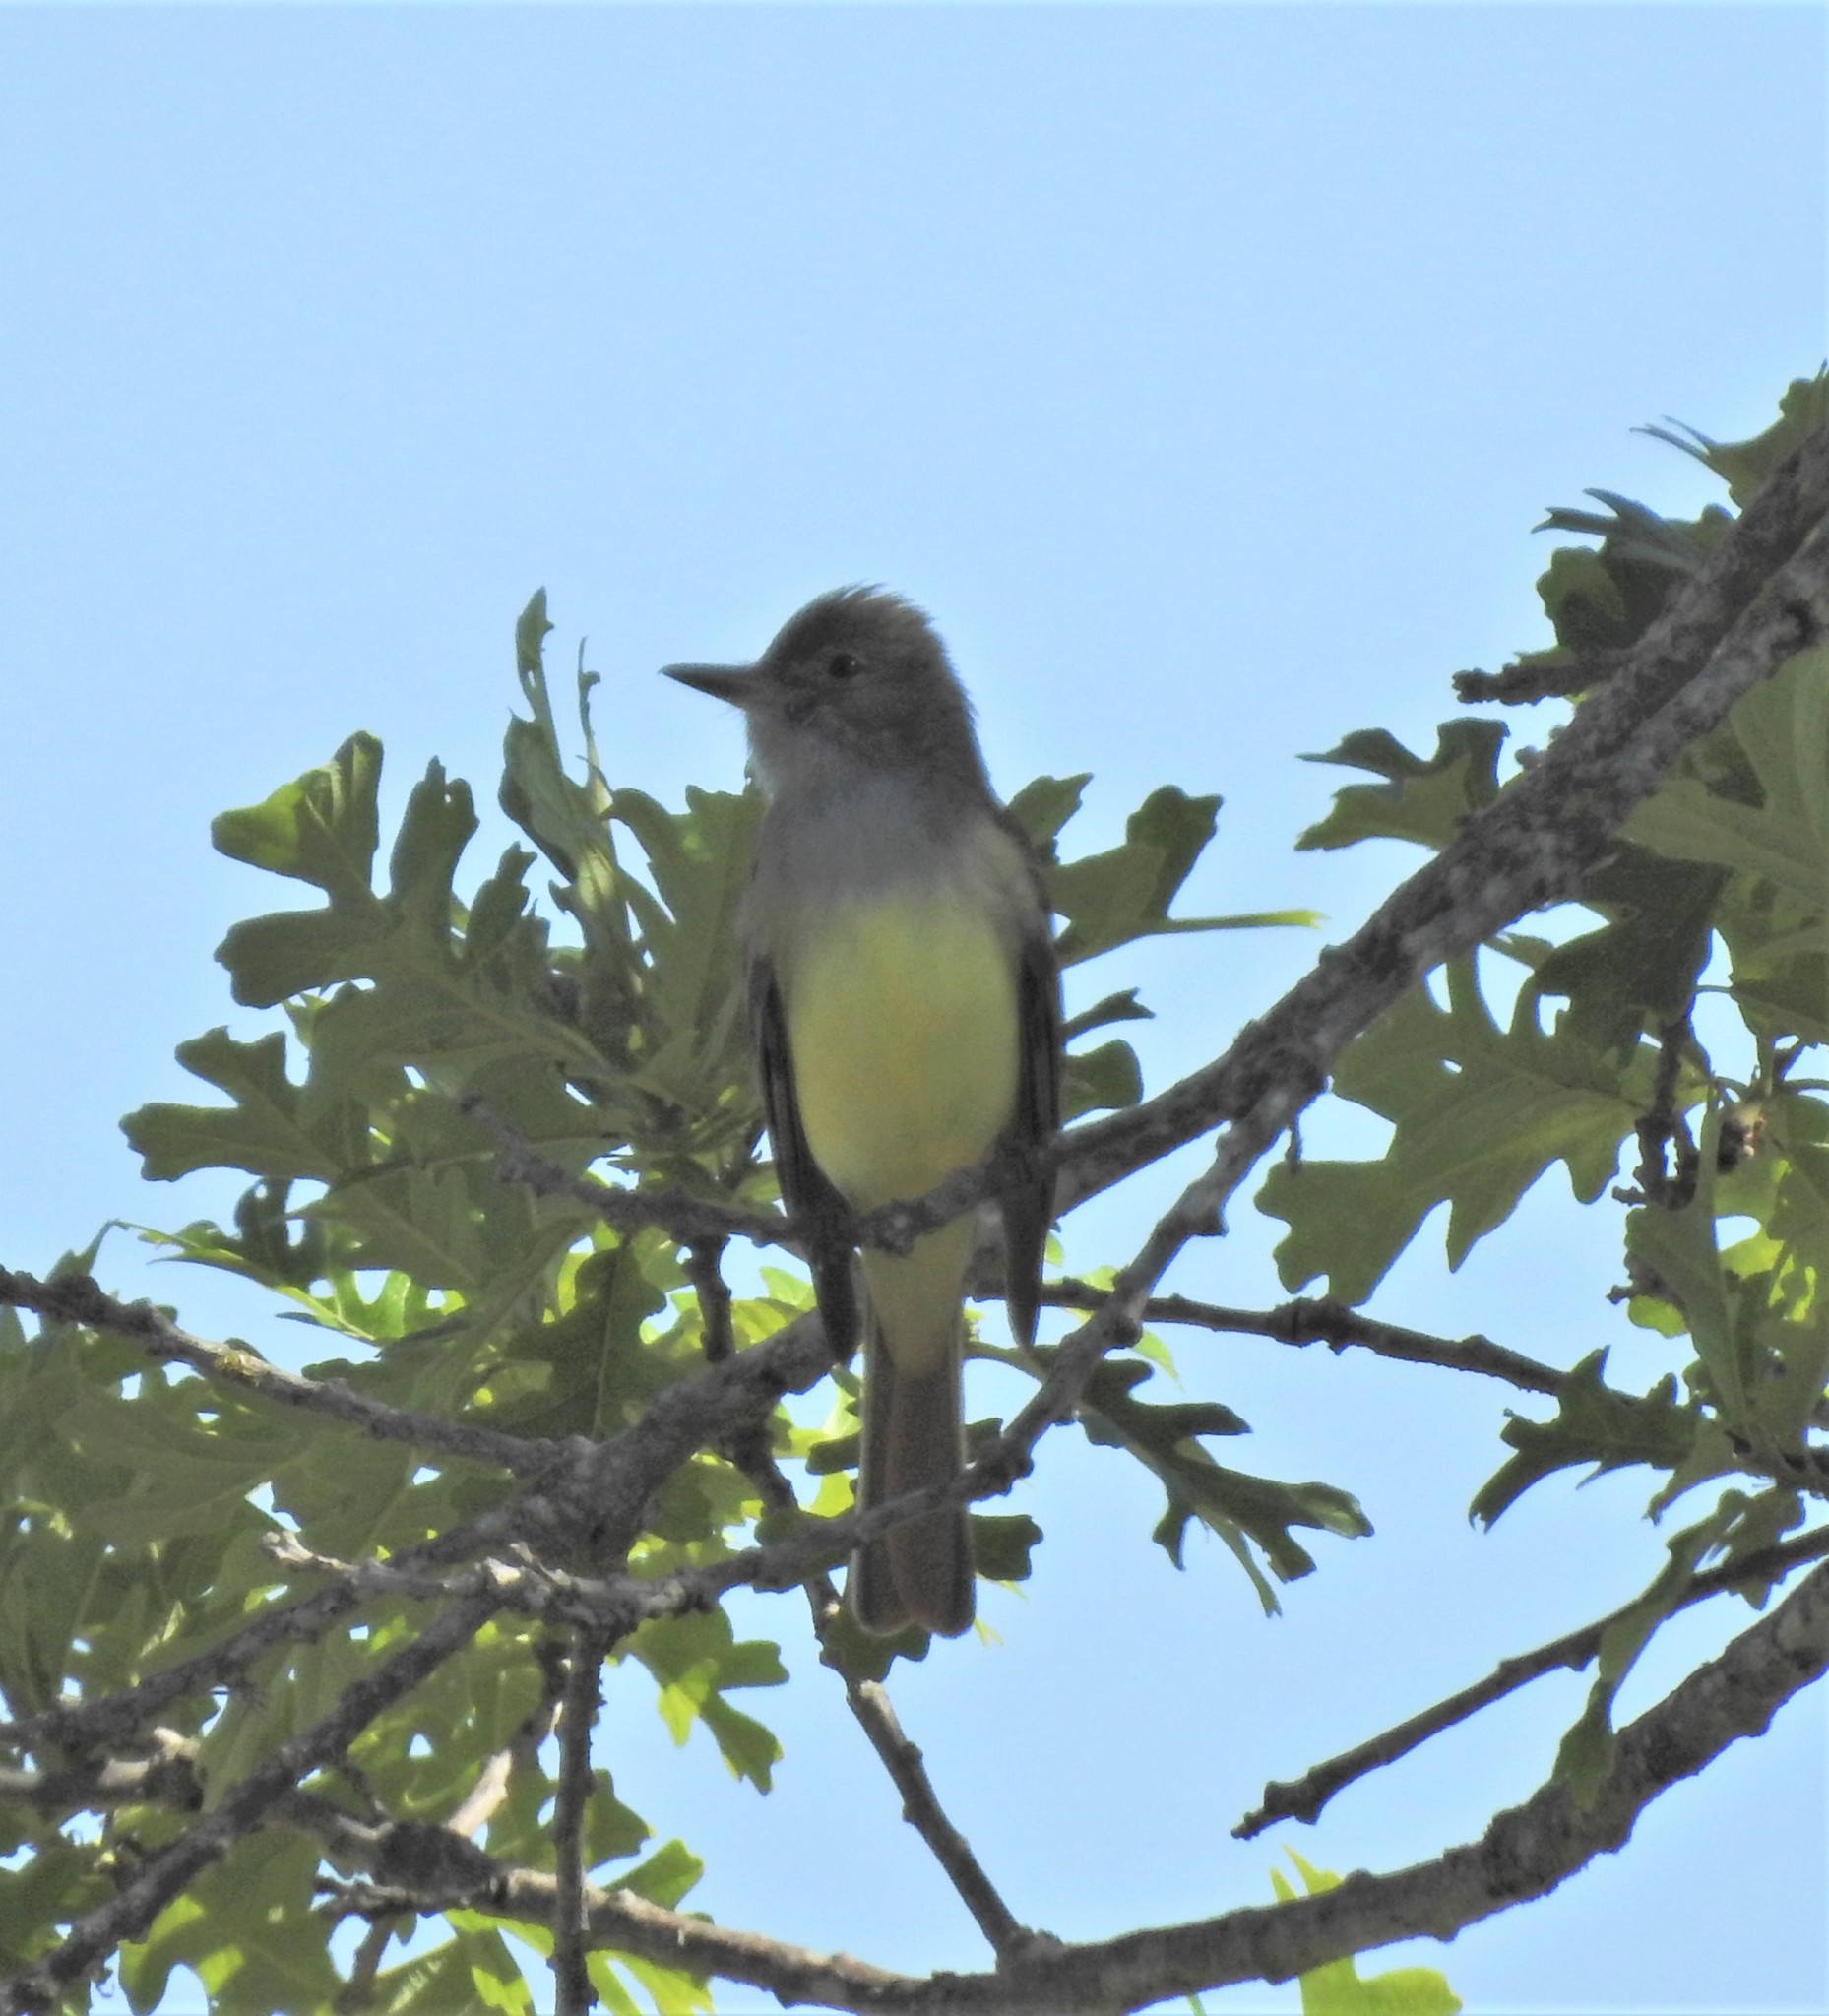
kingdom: Animalia
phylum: Chordata
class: Aves
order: Passeriformes
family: Tyrannidae
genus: Myiarchus
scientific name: Myiarchus crinitus
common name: Great crested flycatcher
